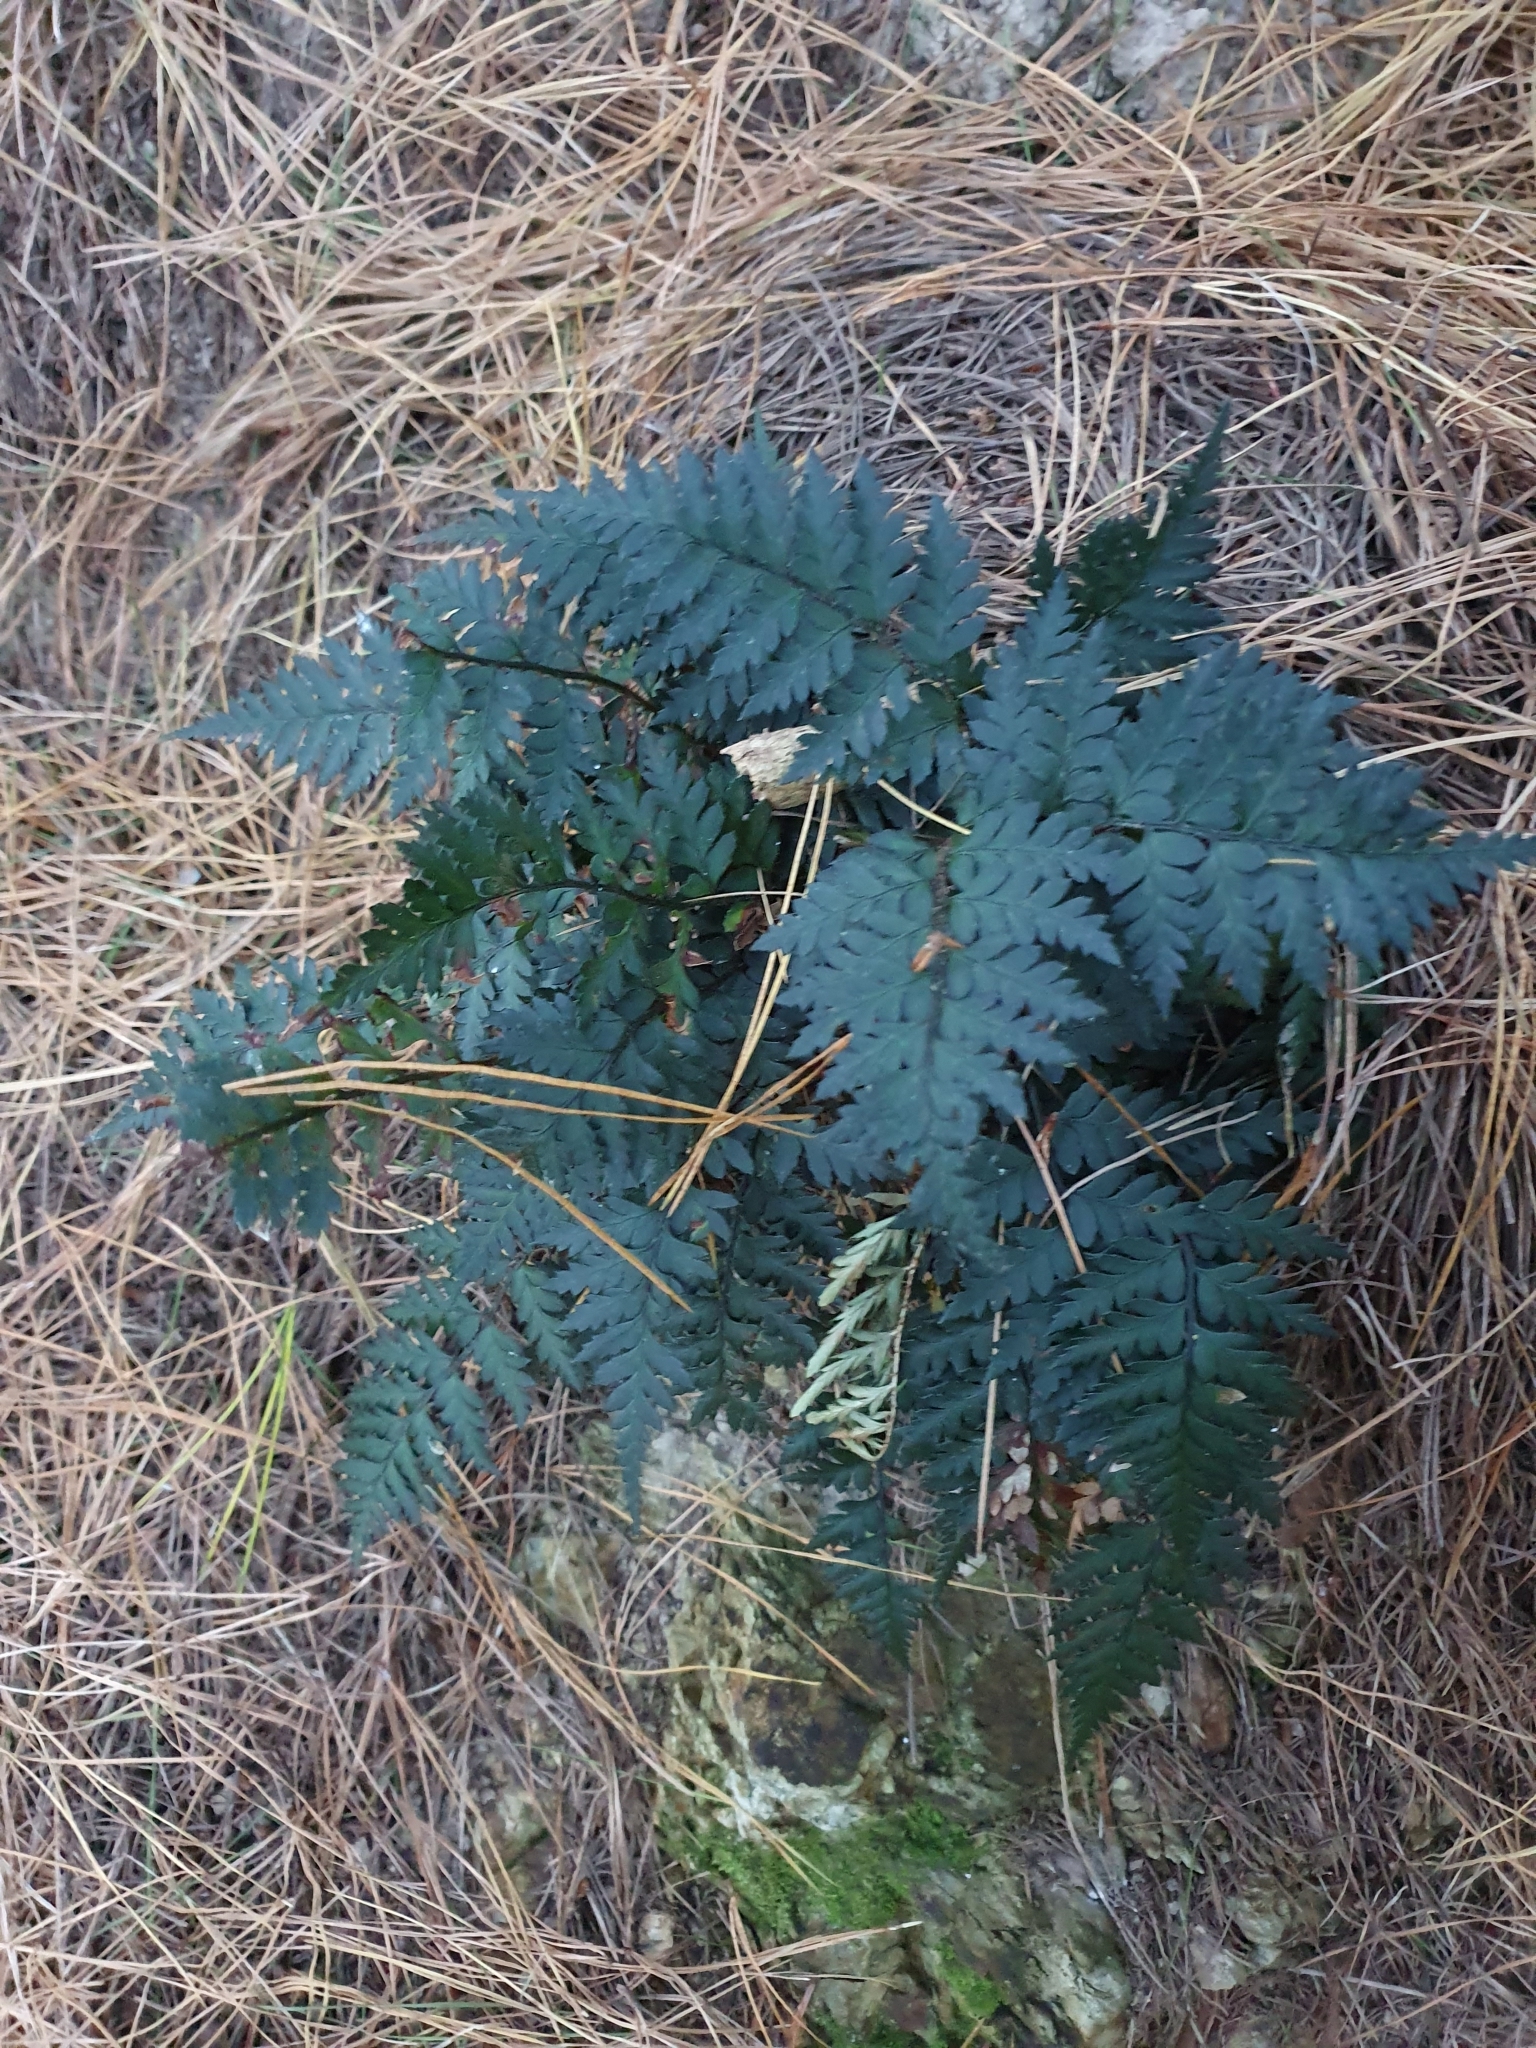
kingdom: Plantae
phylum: Tracheophyta
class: Polypodiopsida
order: Polypodiales
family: Dryopteridaceae
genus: Polystichum
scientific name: Polystichum oculatum
